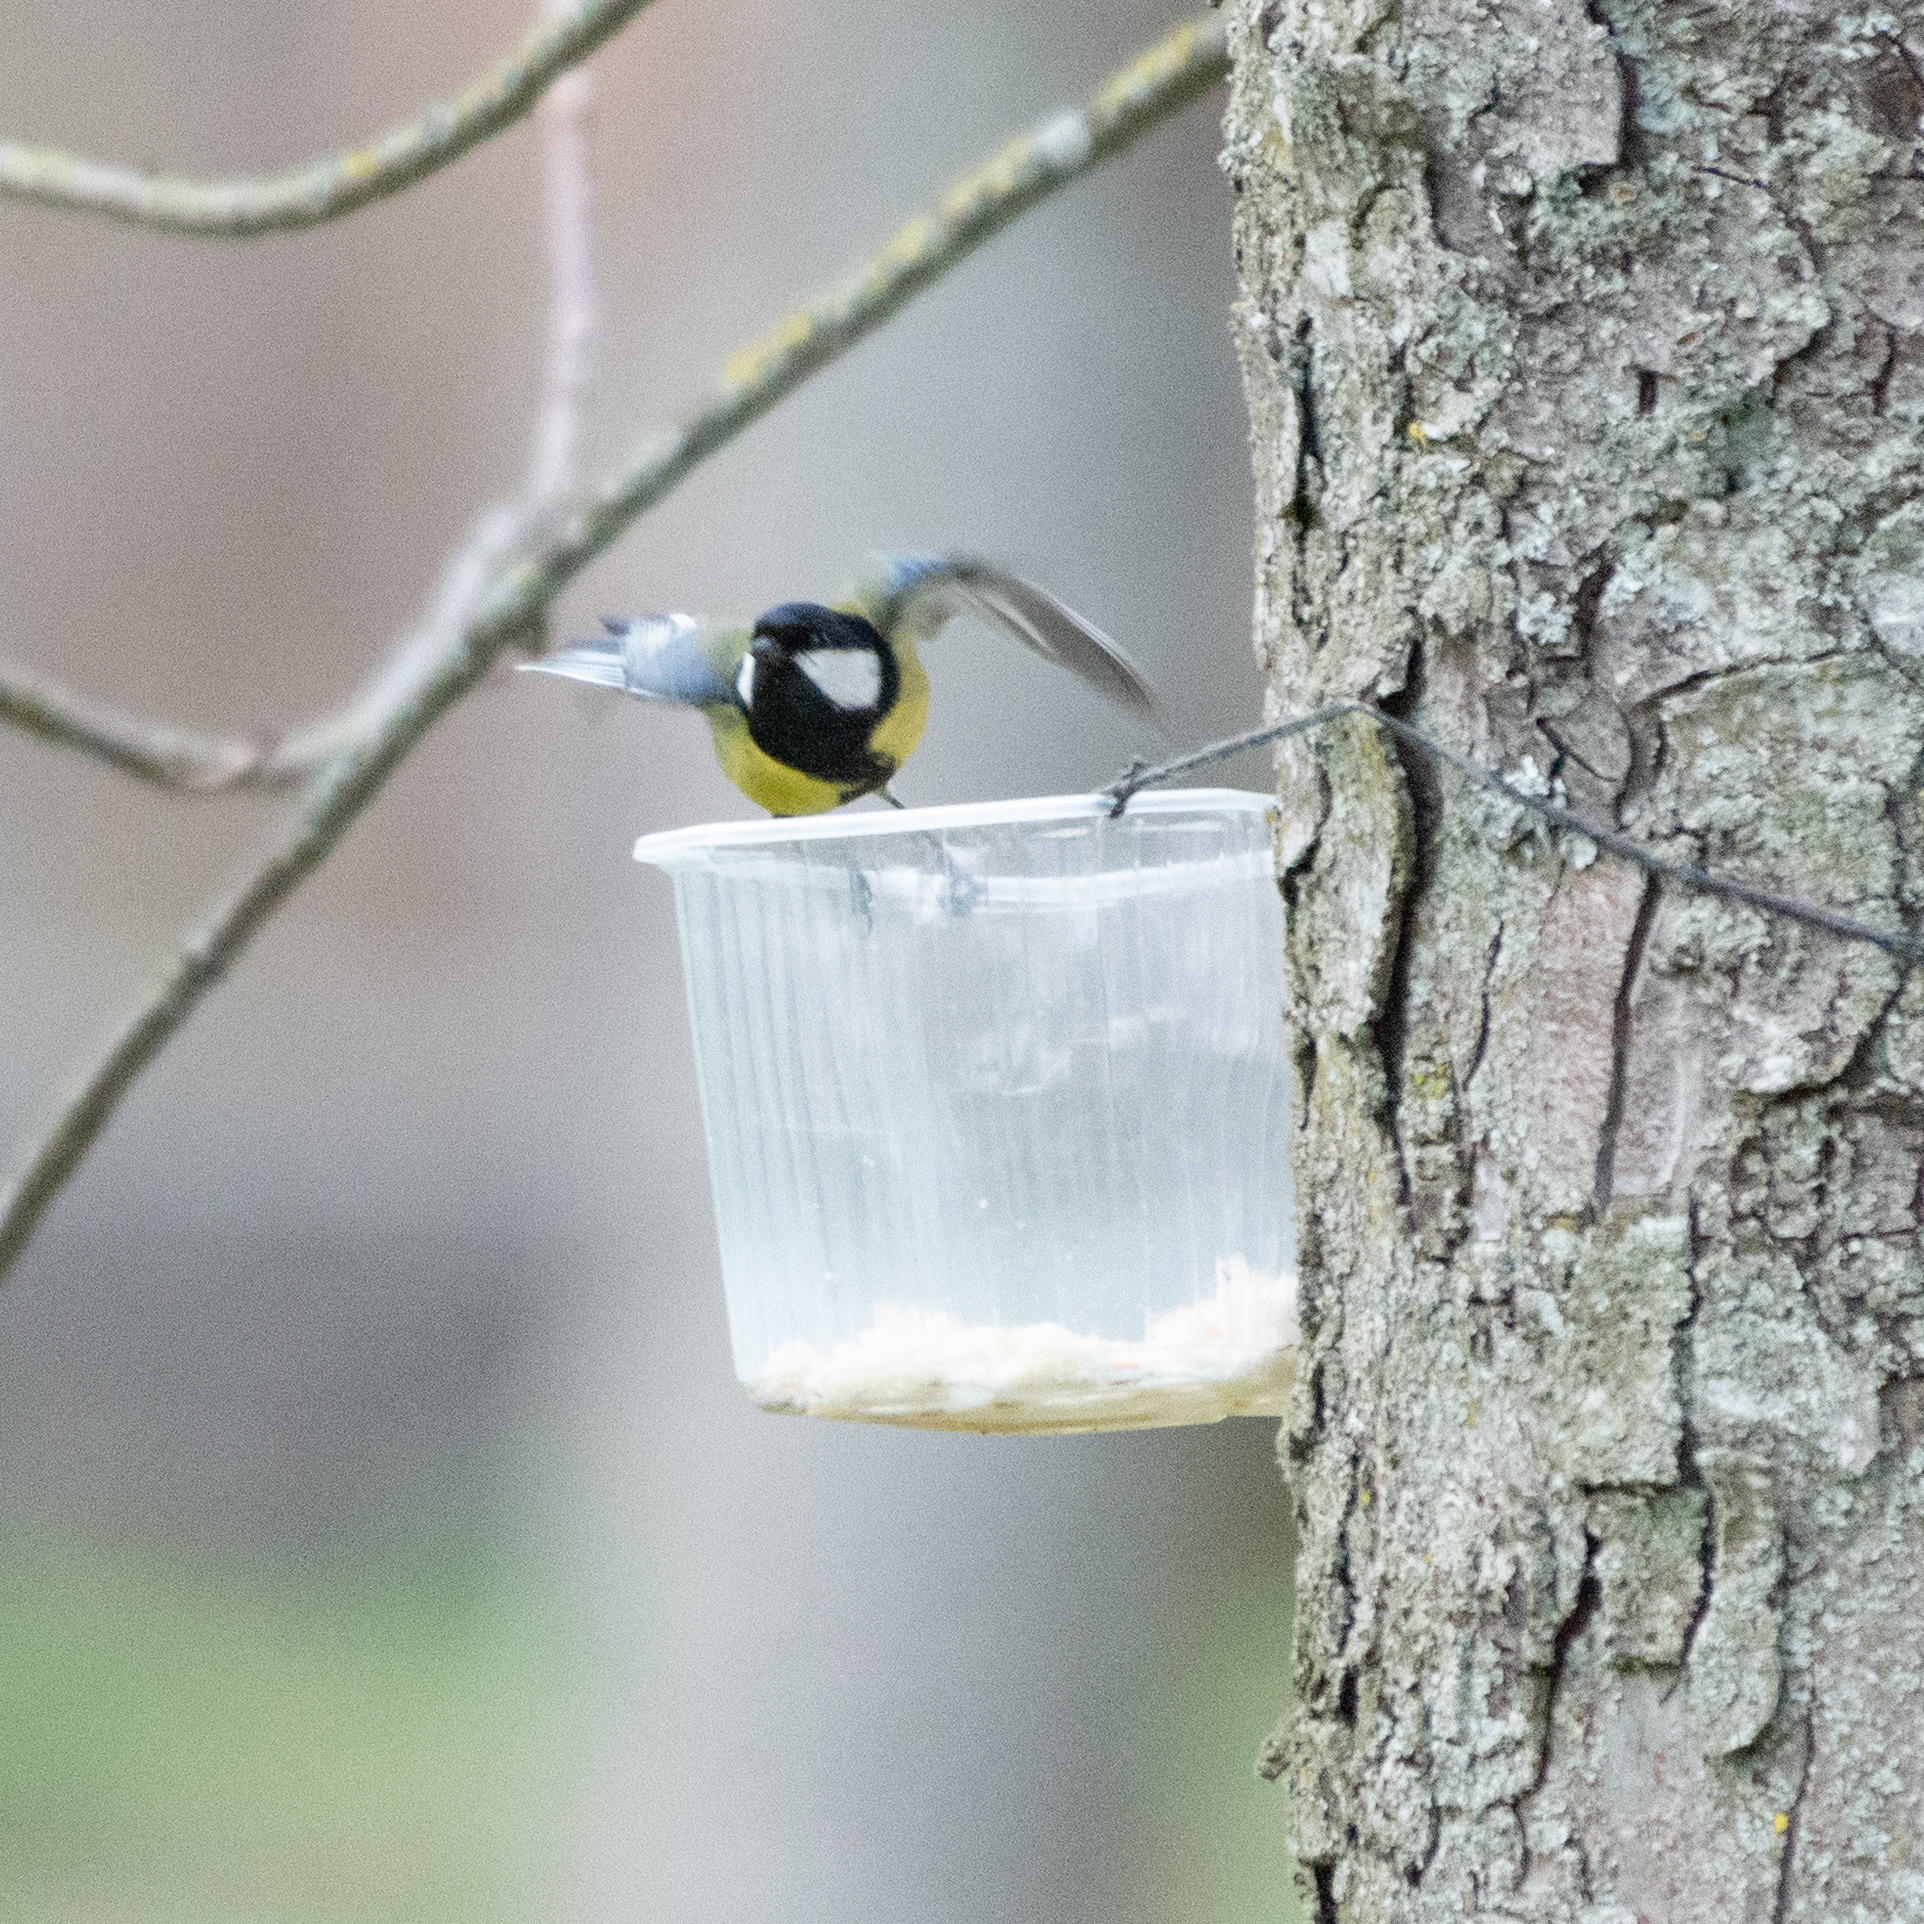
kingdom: Animalia
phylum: Chordata
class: Aves
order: Passeriformes
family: Paridae
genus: Parus
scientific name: Parus major
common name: Great tit
